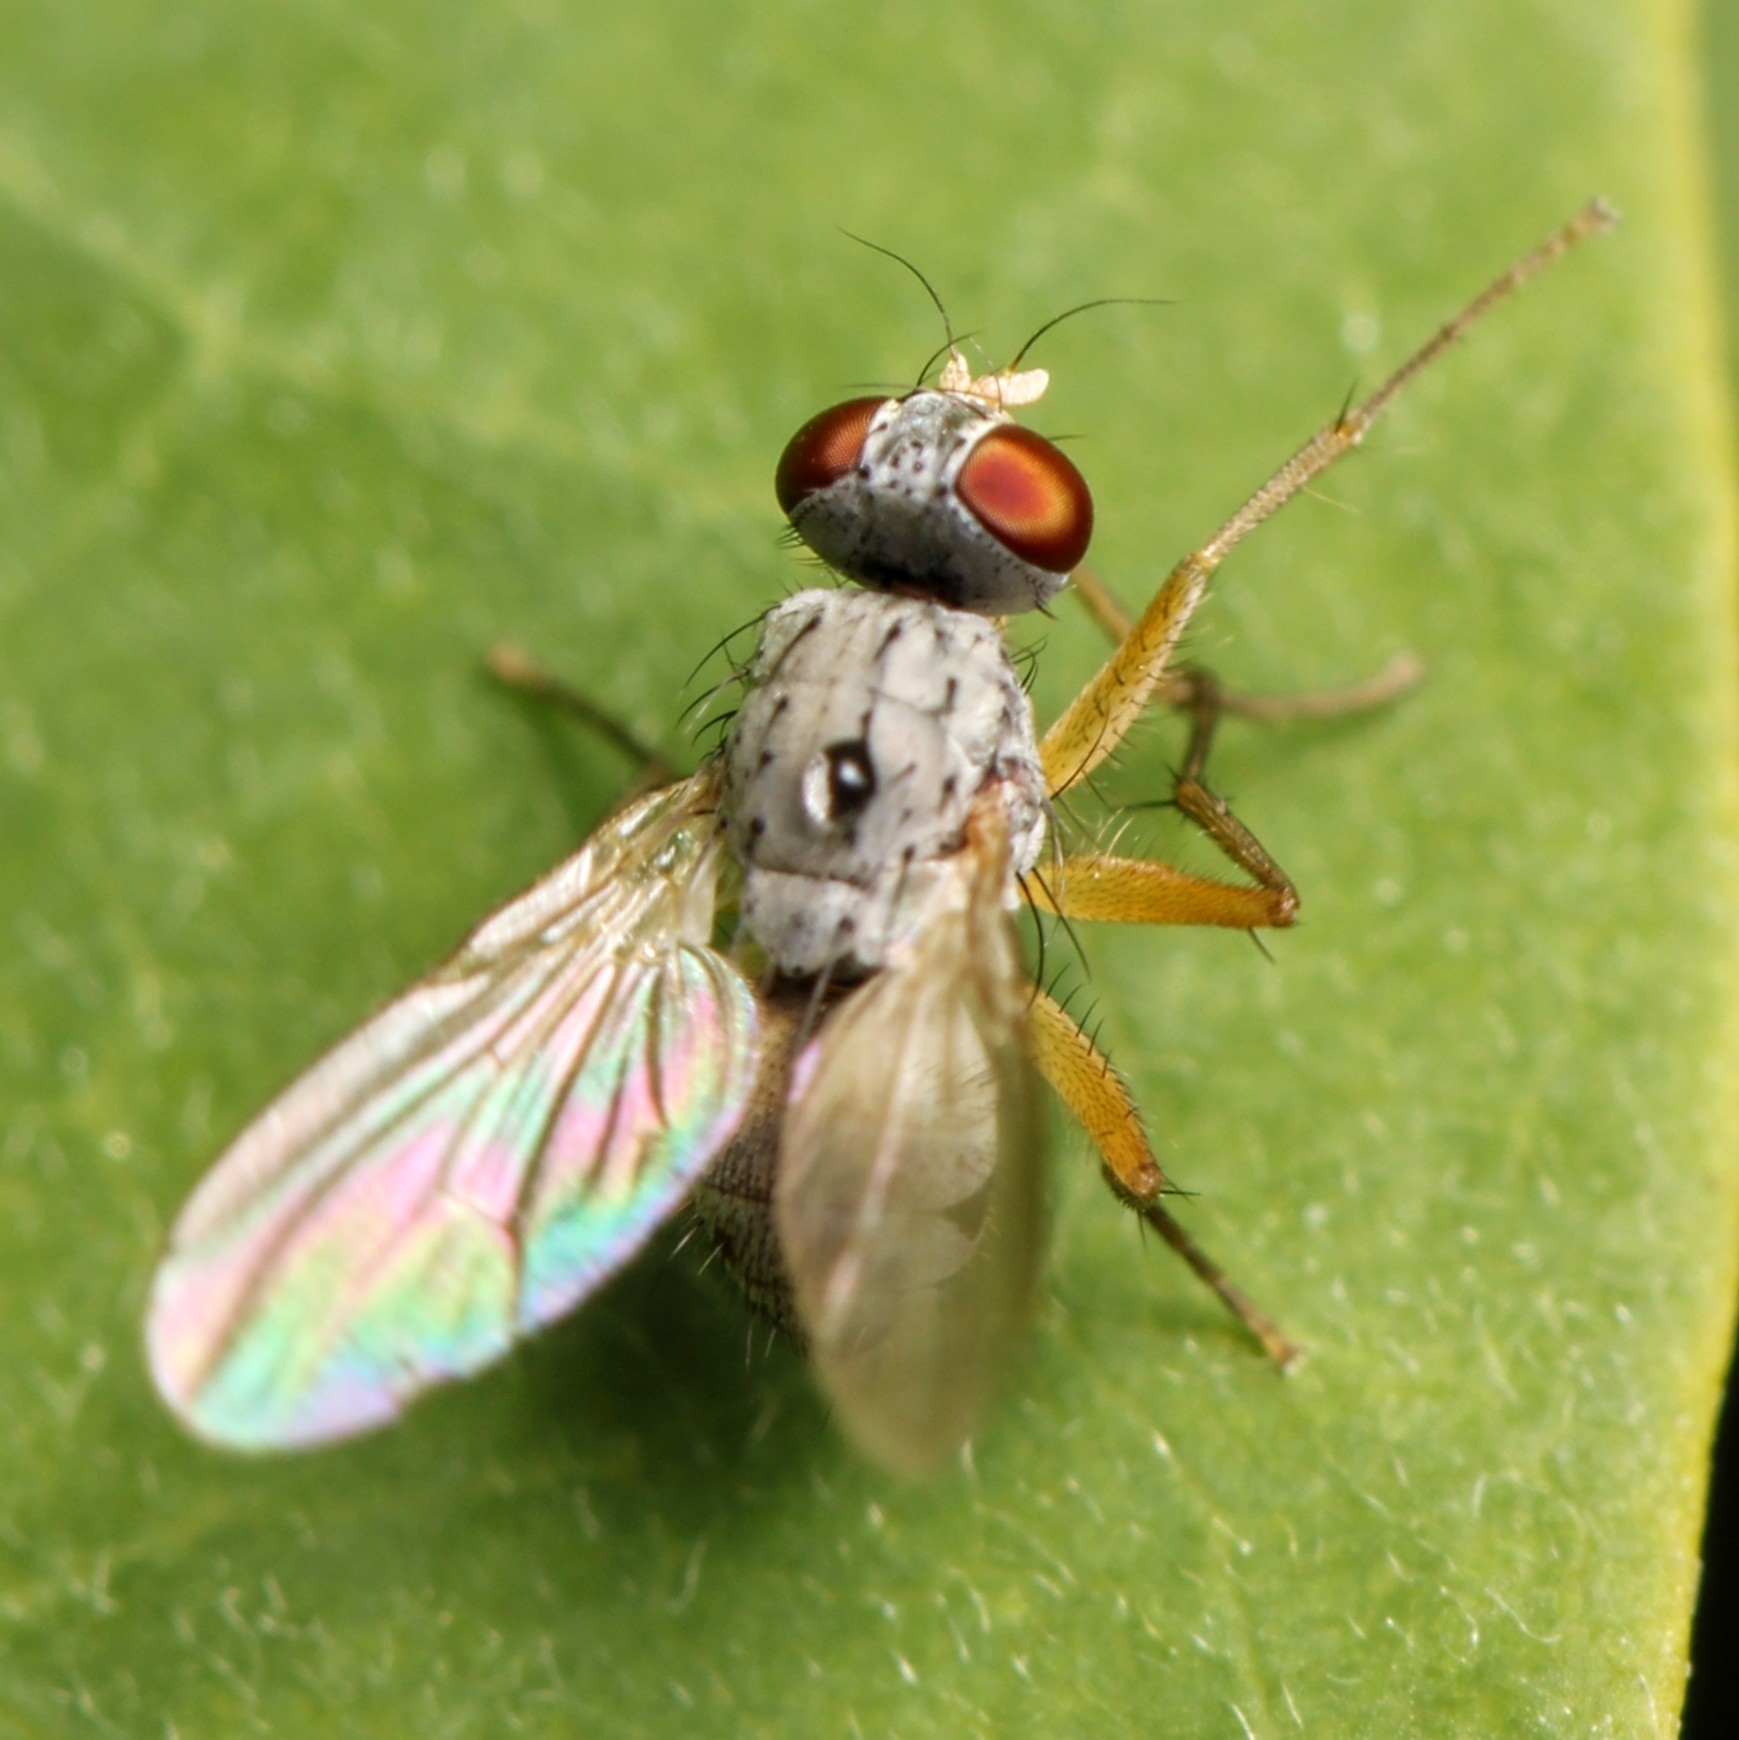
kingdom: Animalia
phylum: Arthropoda
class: Insecta
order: Diptera
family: Muscidae
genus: Neodexiopsis
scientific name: Neodexiopsis calopyga
